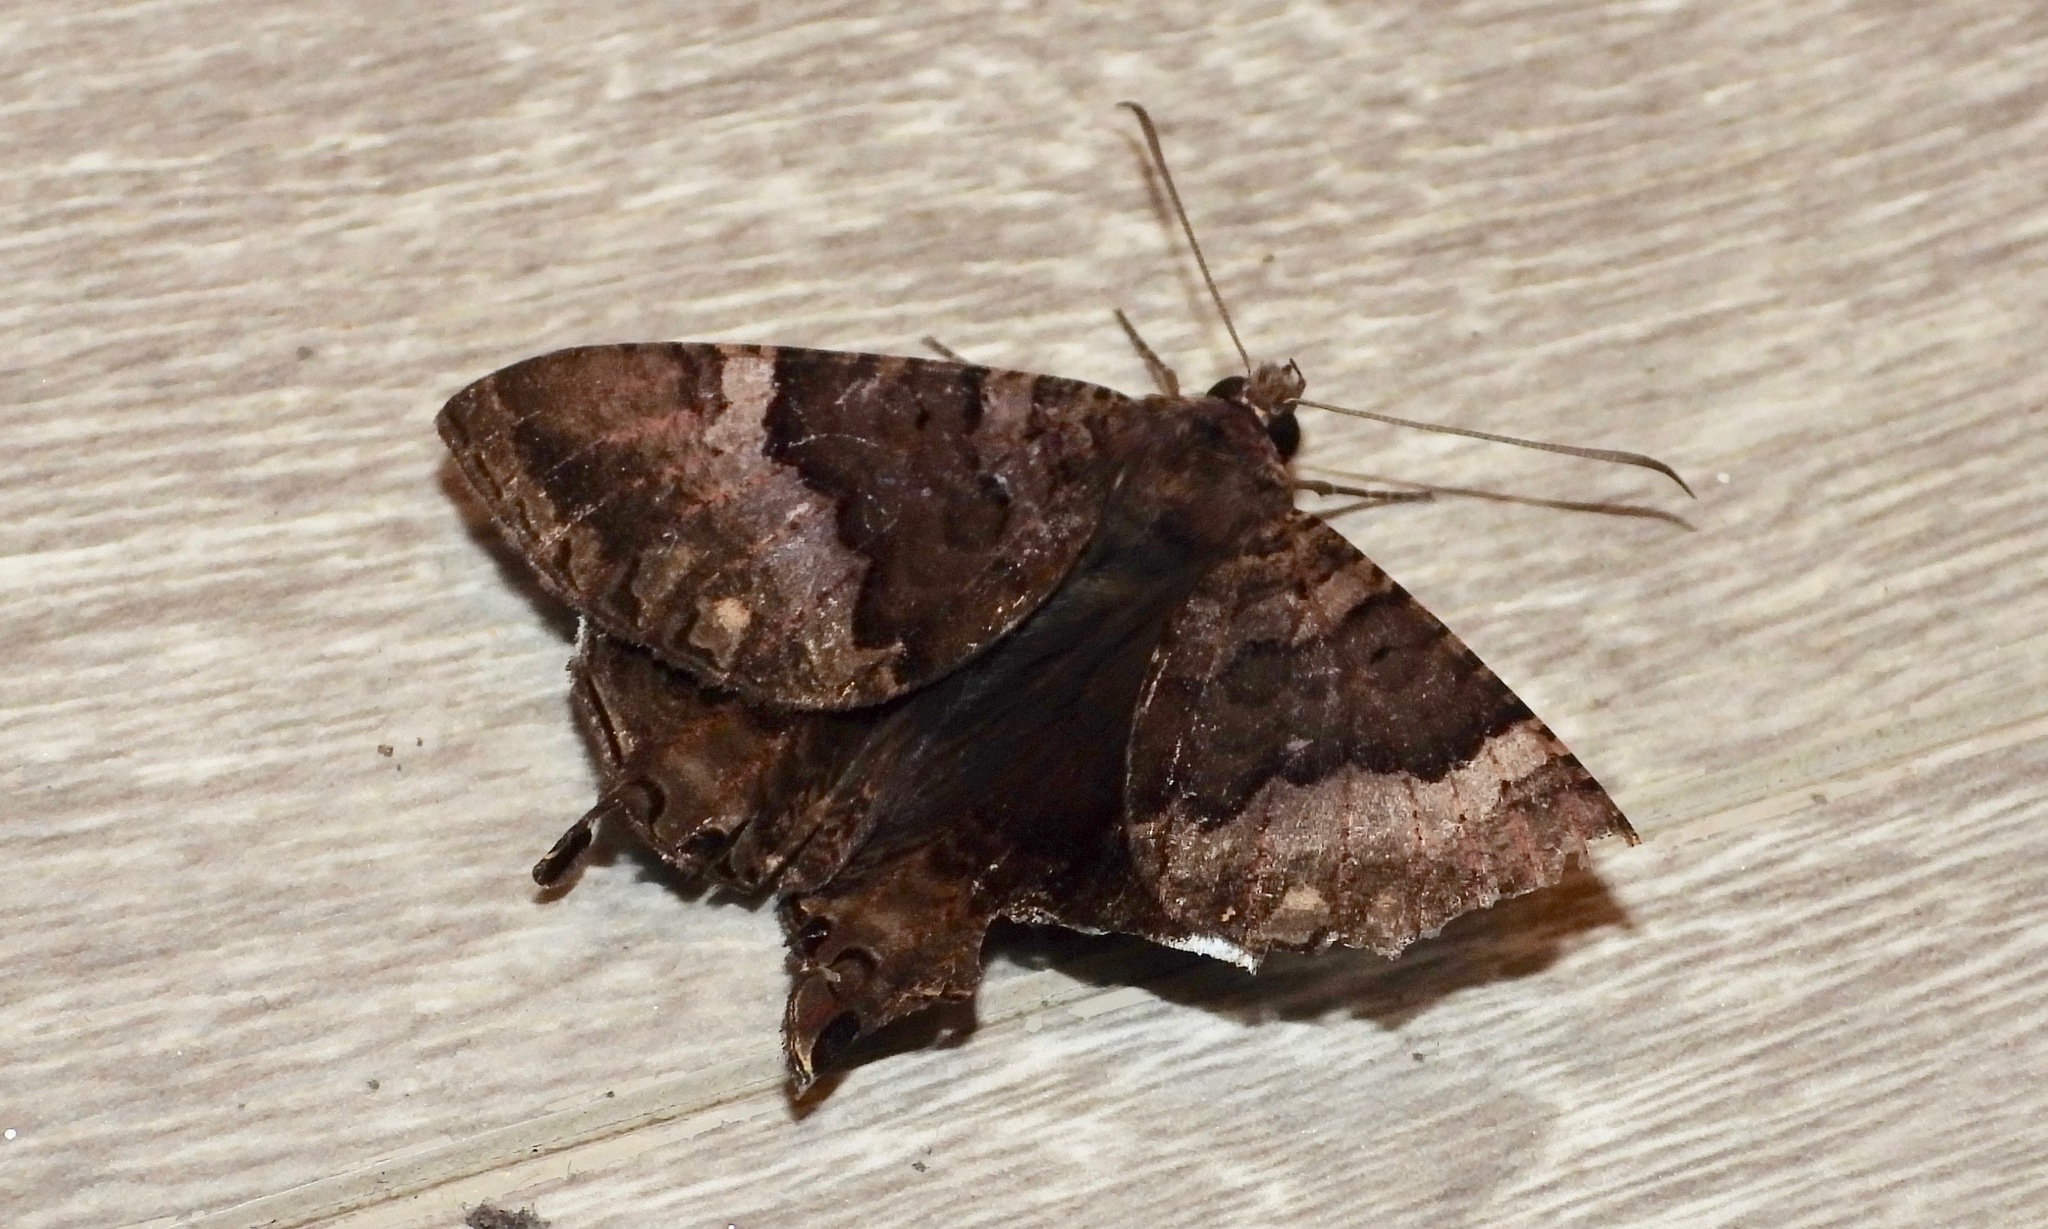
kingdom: Animalia
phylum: Arthropoda
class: Insecta
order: Lepidoptera
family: Sematuridae
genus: Coronidia
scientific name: Coronidia leachii
